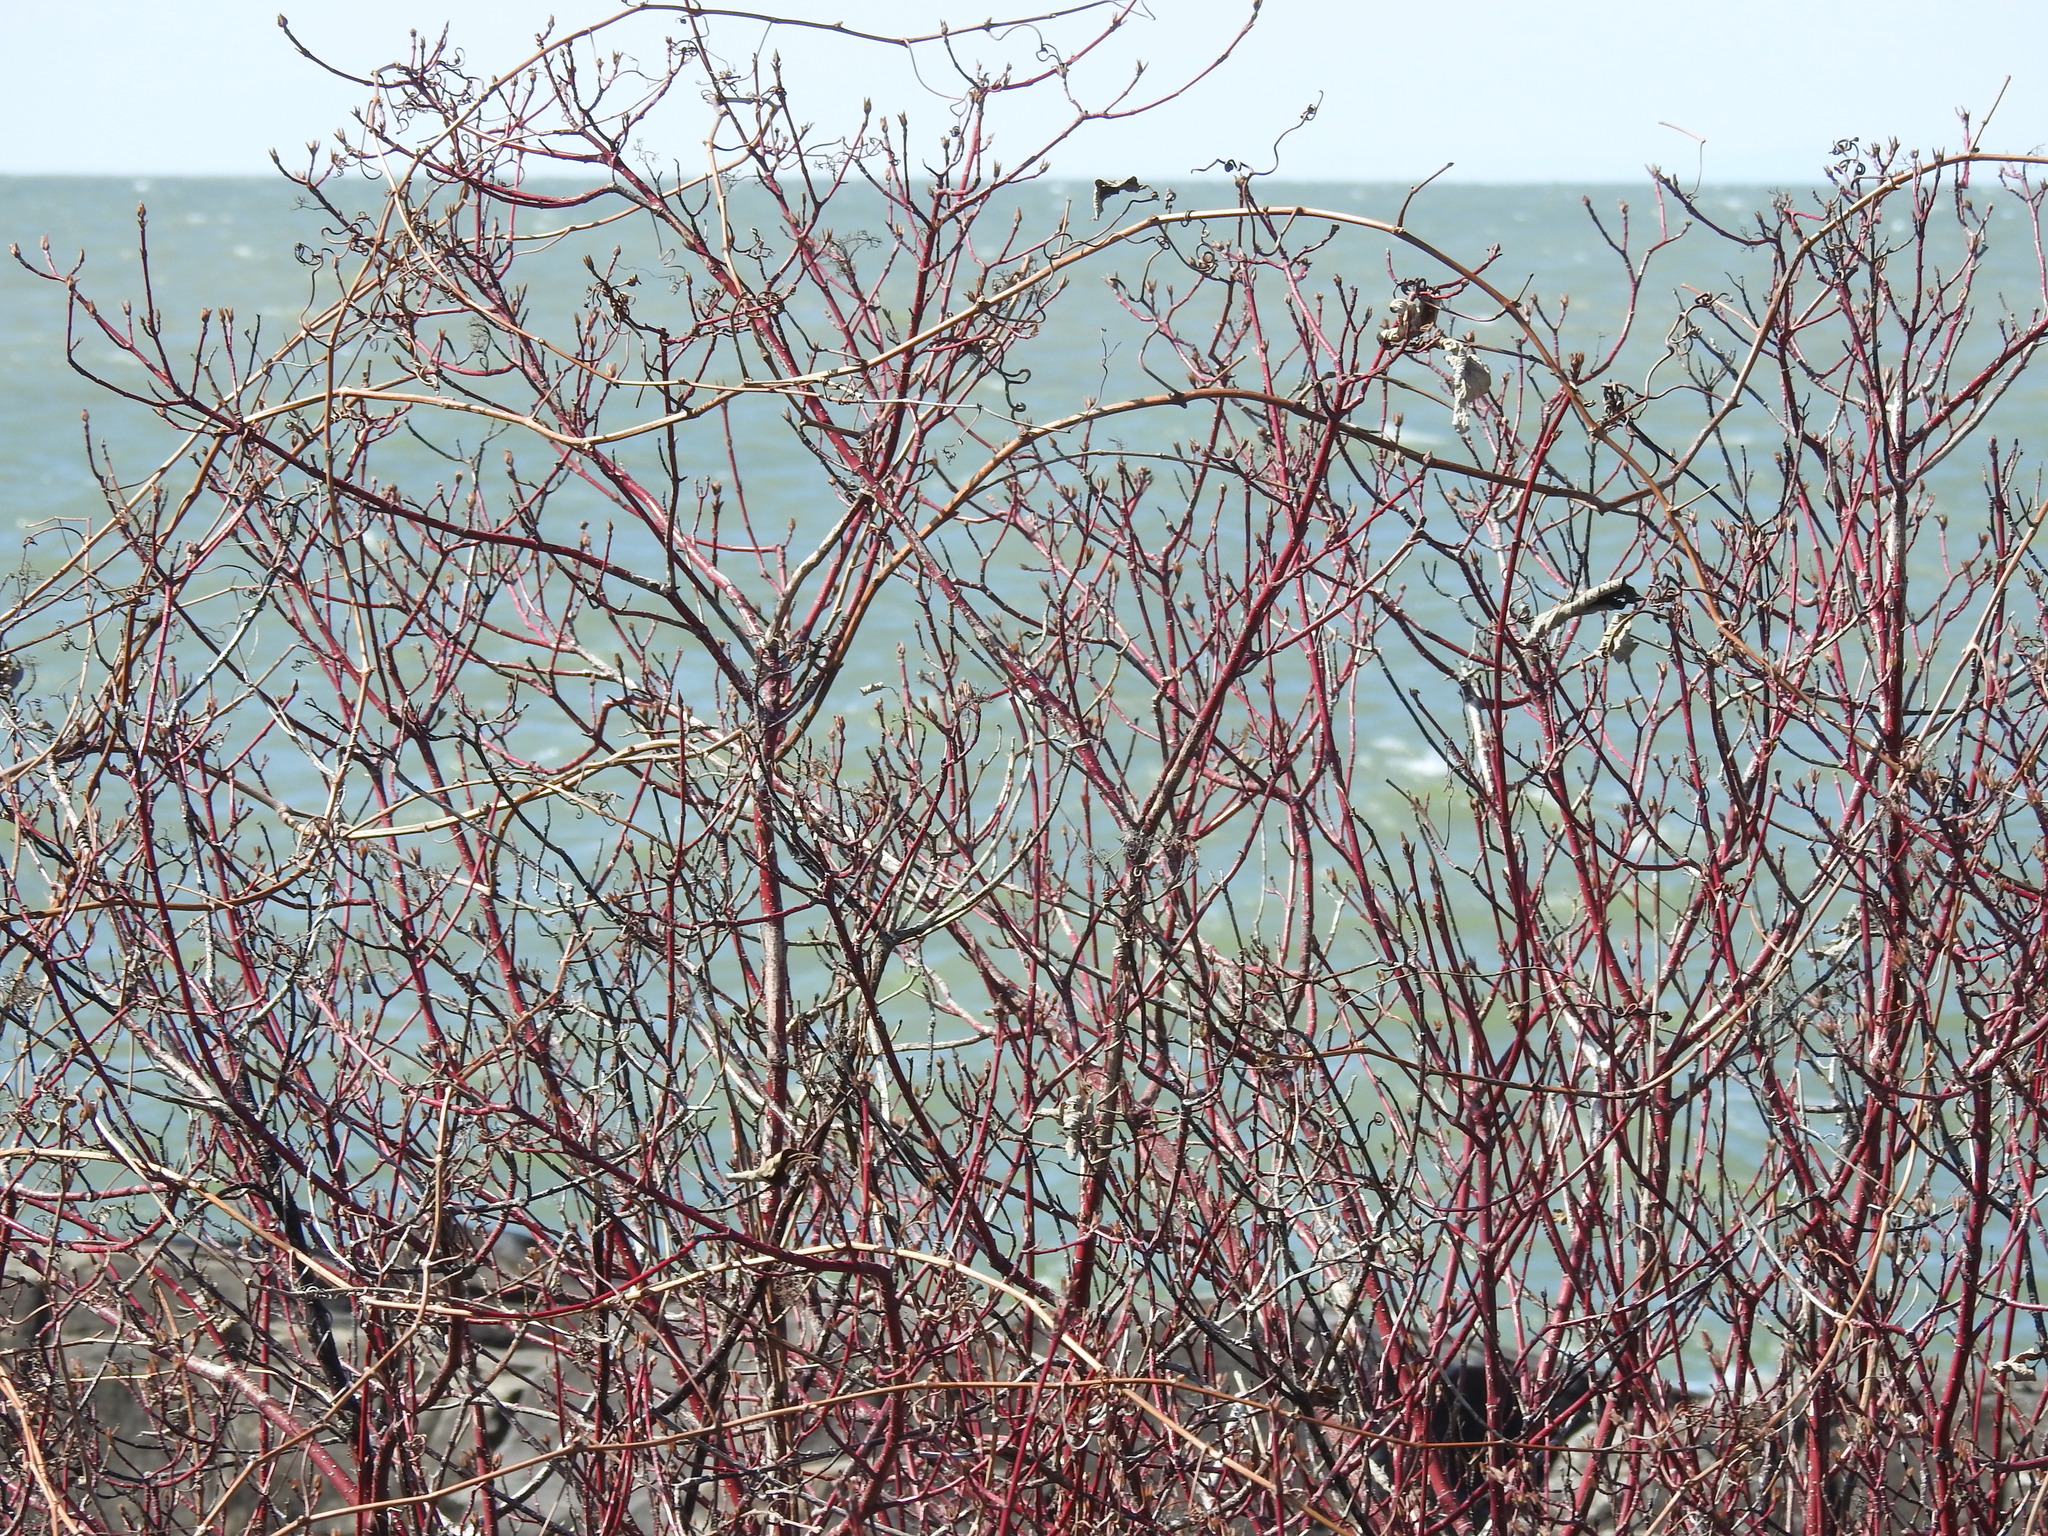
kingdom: Plantae
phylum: Tracheophyta
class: Magnoliopsida
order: Cornales
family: Cornaceae
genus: Cornus
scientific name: Cornus sericea
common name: Red-osier dogwood
